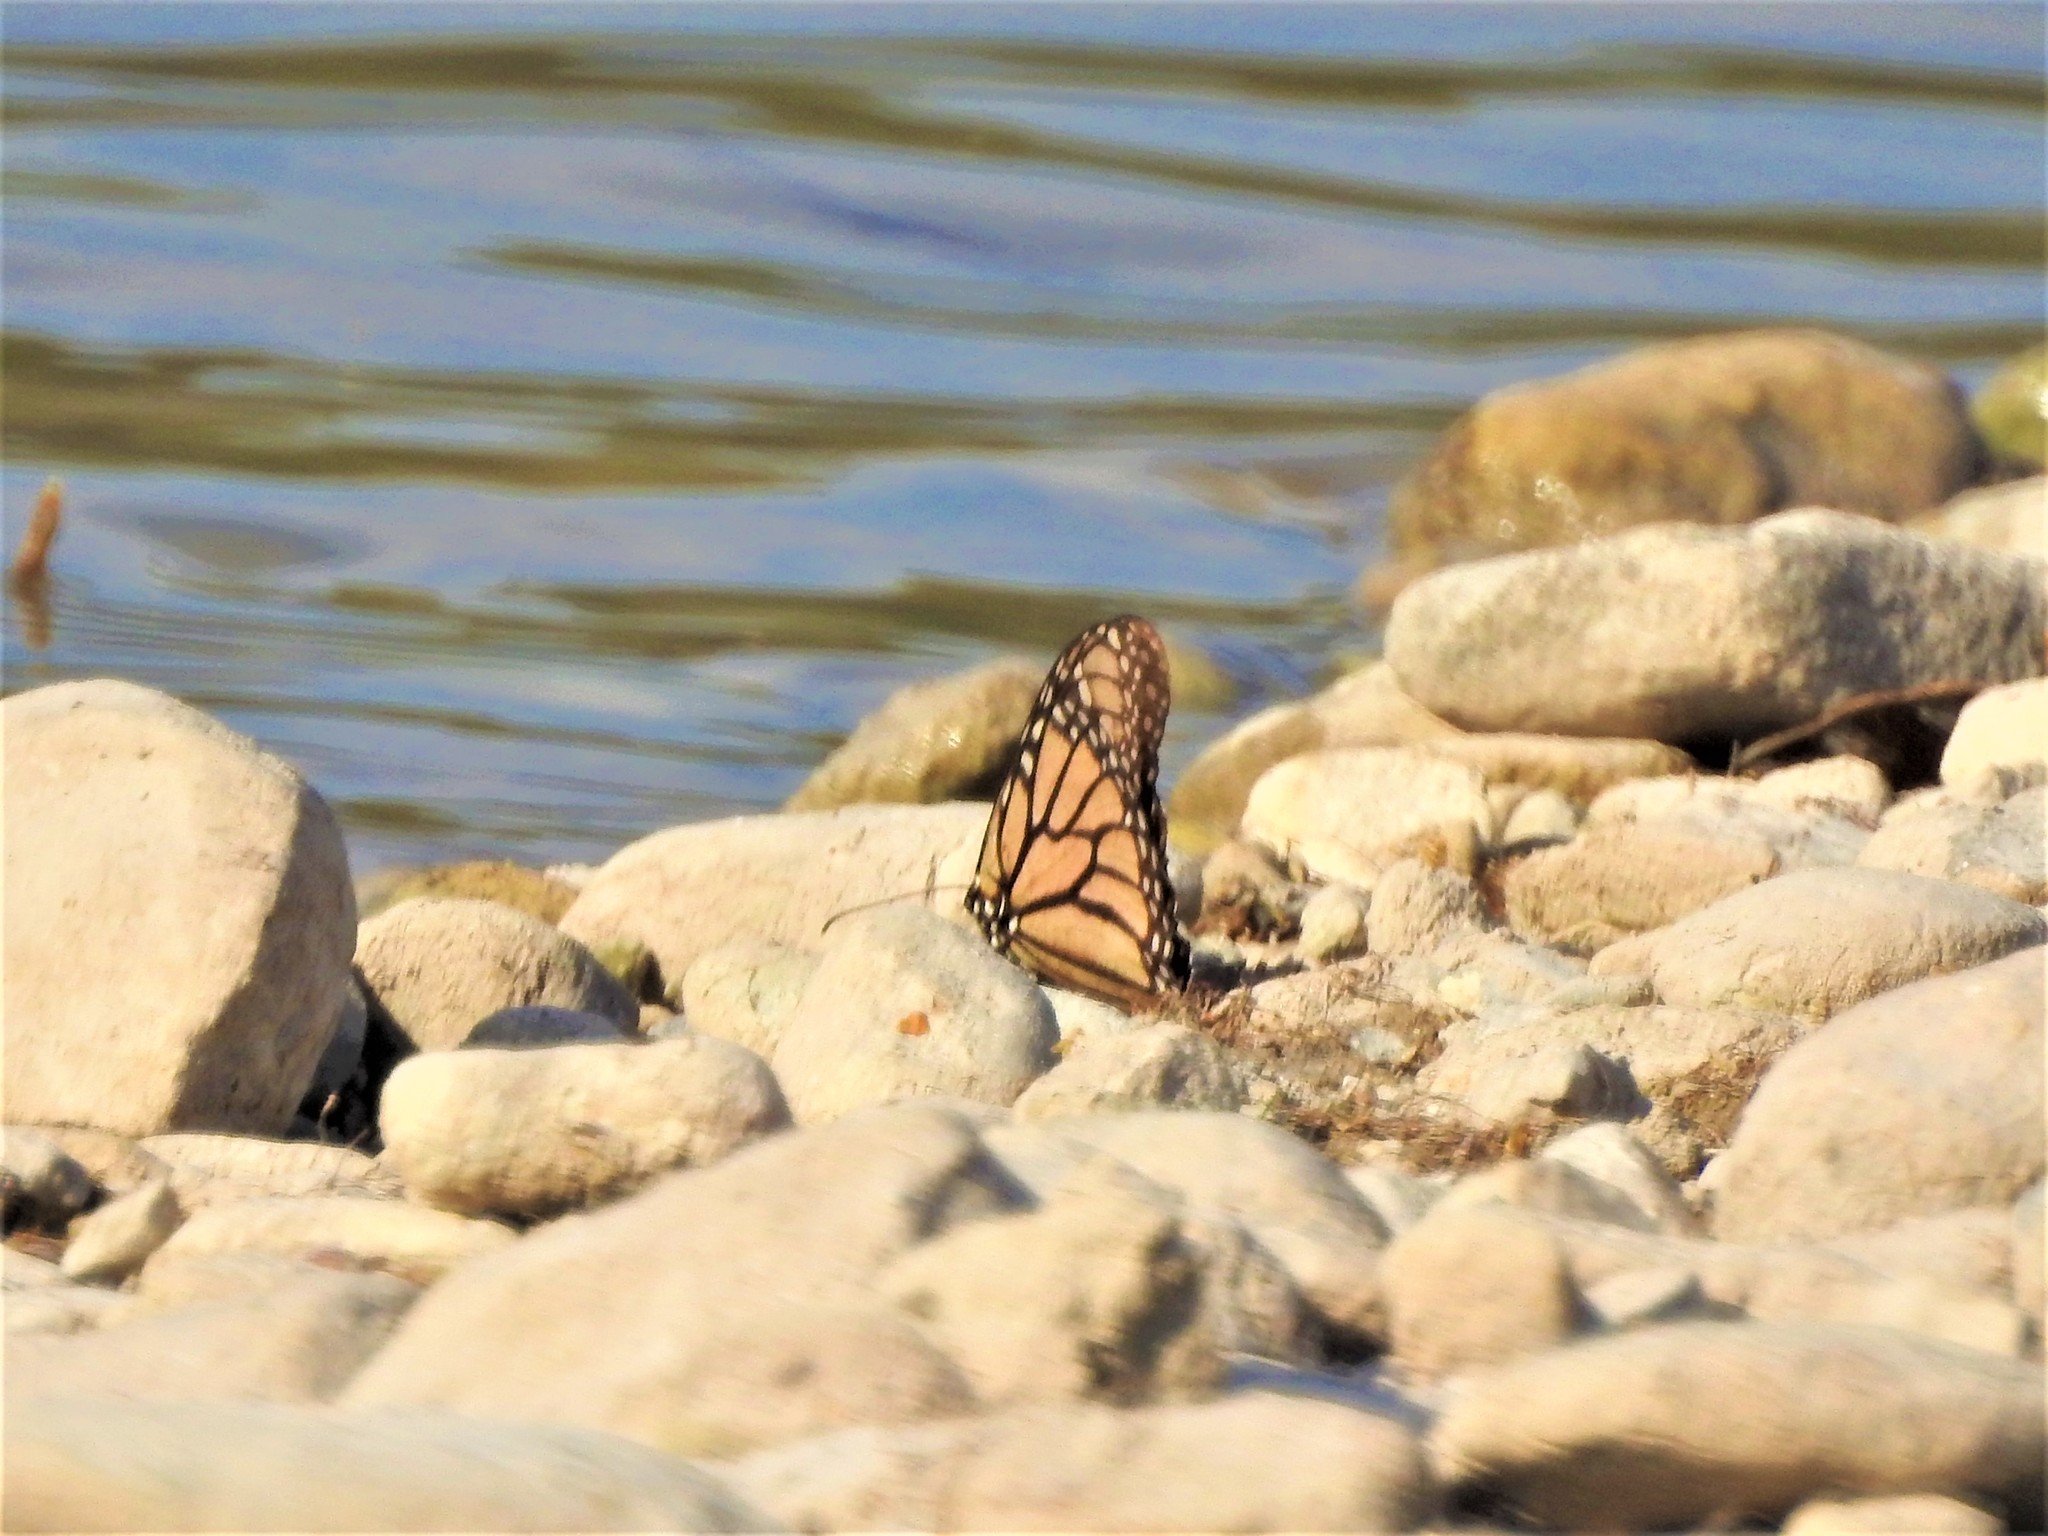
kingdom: Animalia
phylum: Arthropoda
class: Insecta
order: Lepidoptera
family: Nymphalidae
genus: Danaus
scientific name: Danaus plexippus
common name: Monarch
